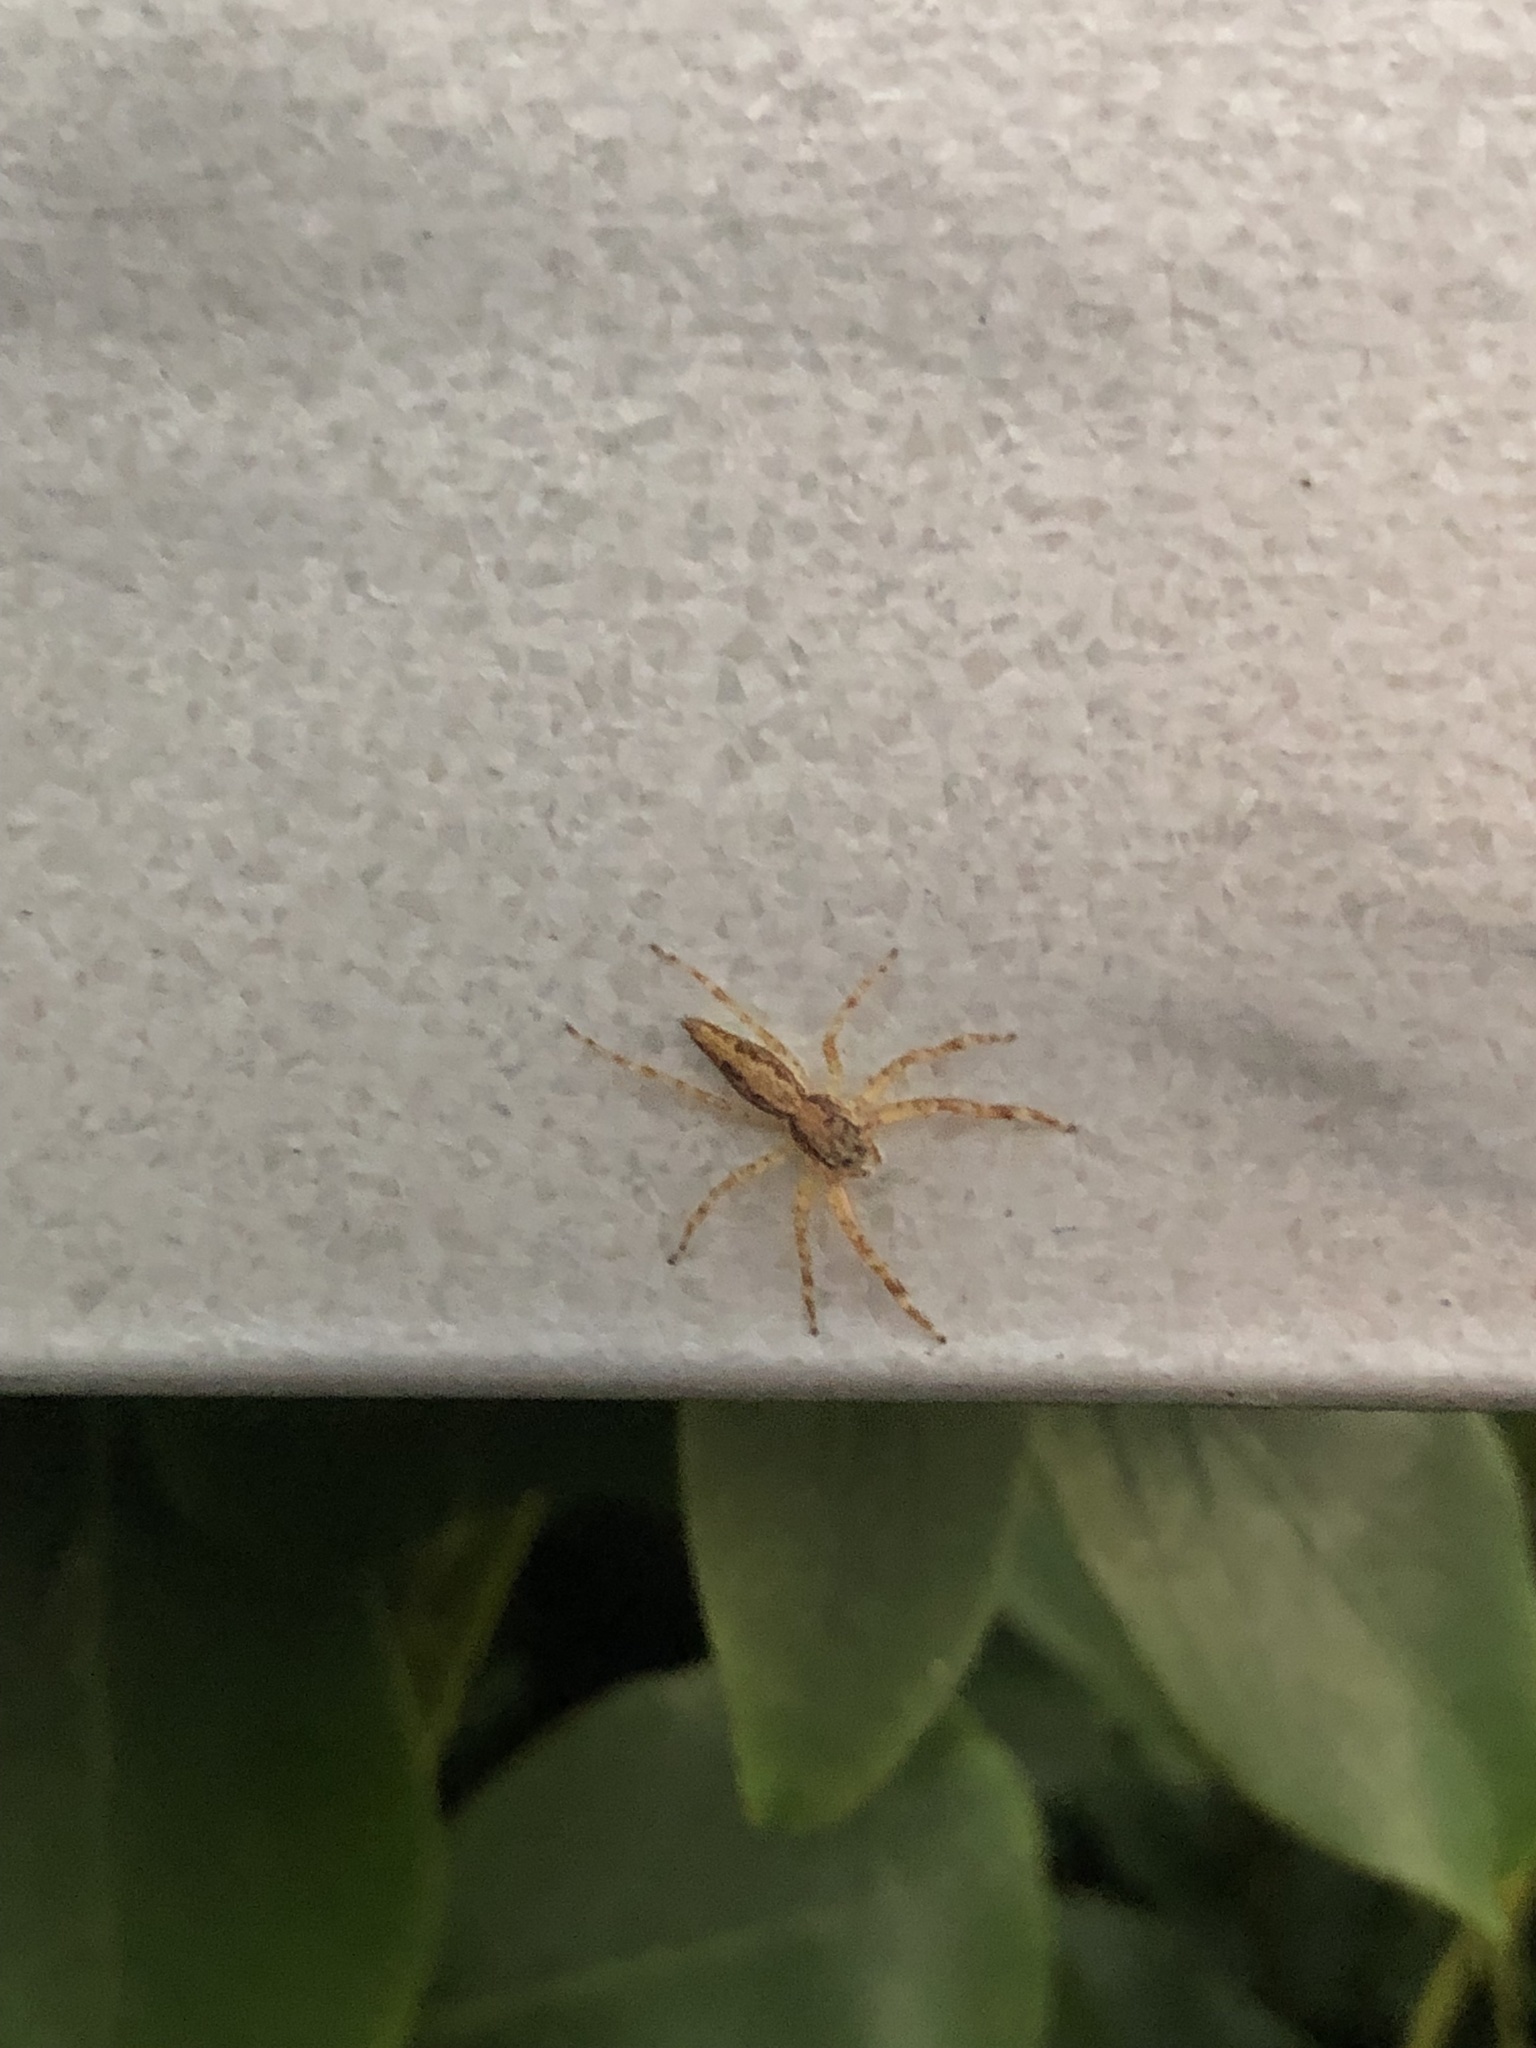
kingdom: Animalia
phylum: Arthropoda
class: Arachnida
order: Araneae
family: Salticidae
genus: Helpis
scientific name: Helpis minitabunda
